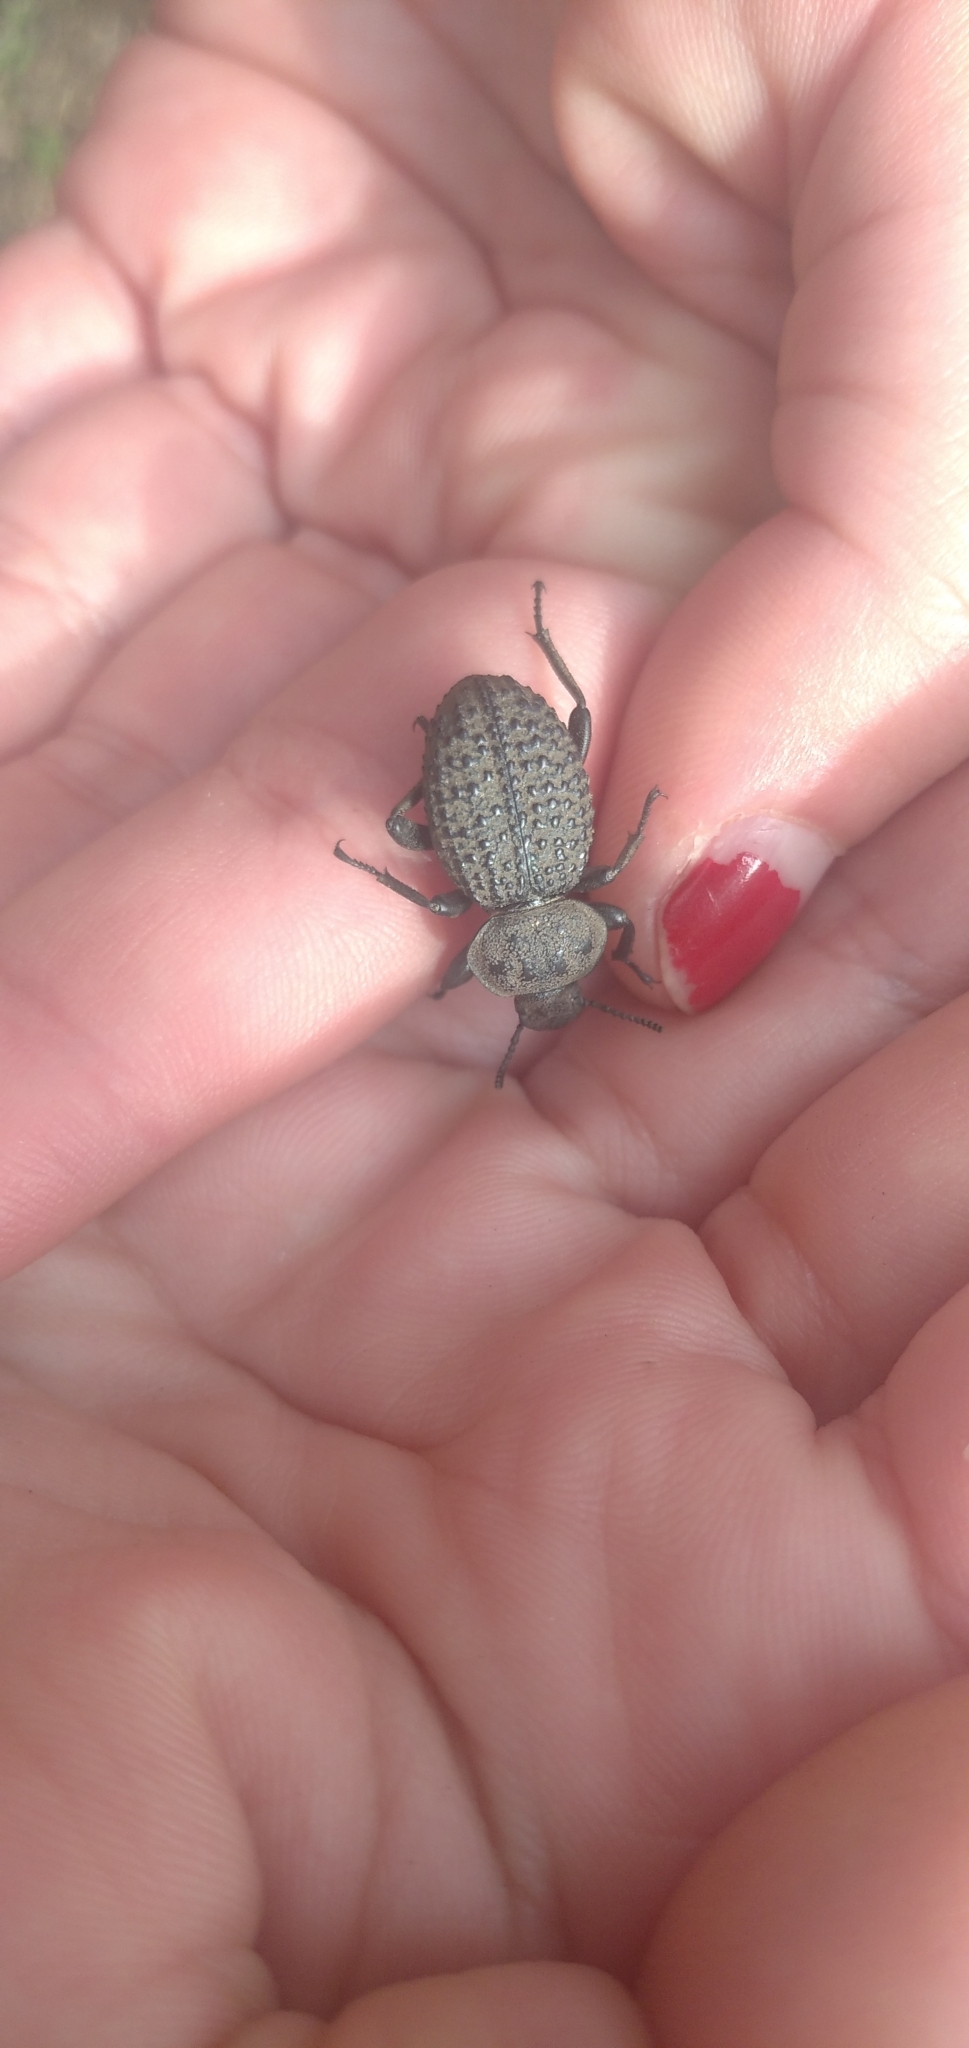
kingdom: Animalia
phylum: Arthropoda
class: Insecta
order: Coleoptera
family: Tenebrionidae
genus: Scotobius
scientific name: Scotobius pilularius
